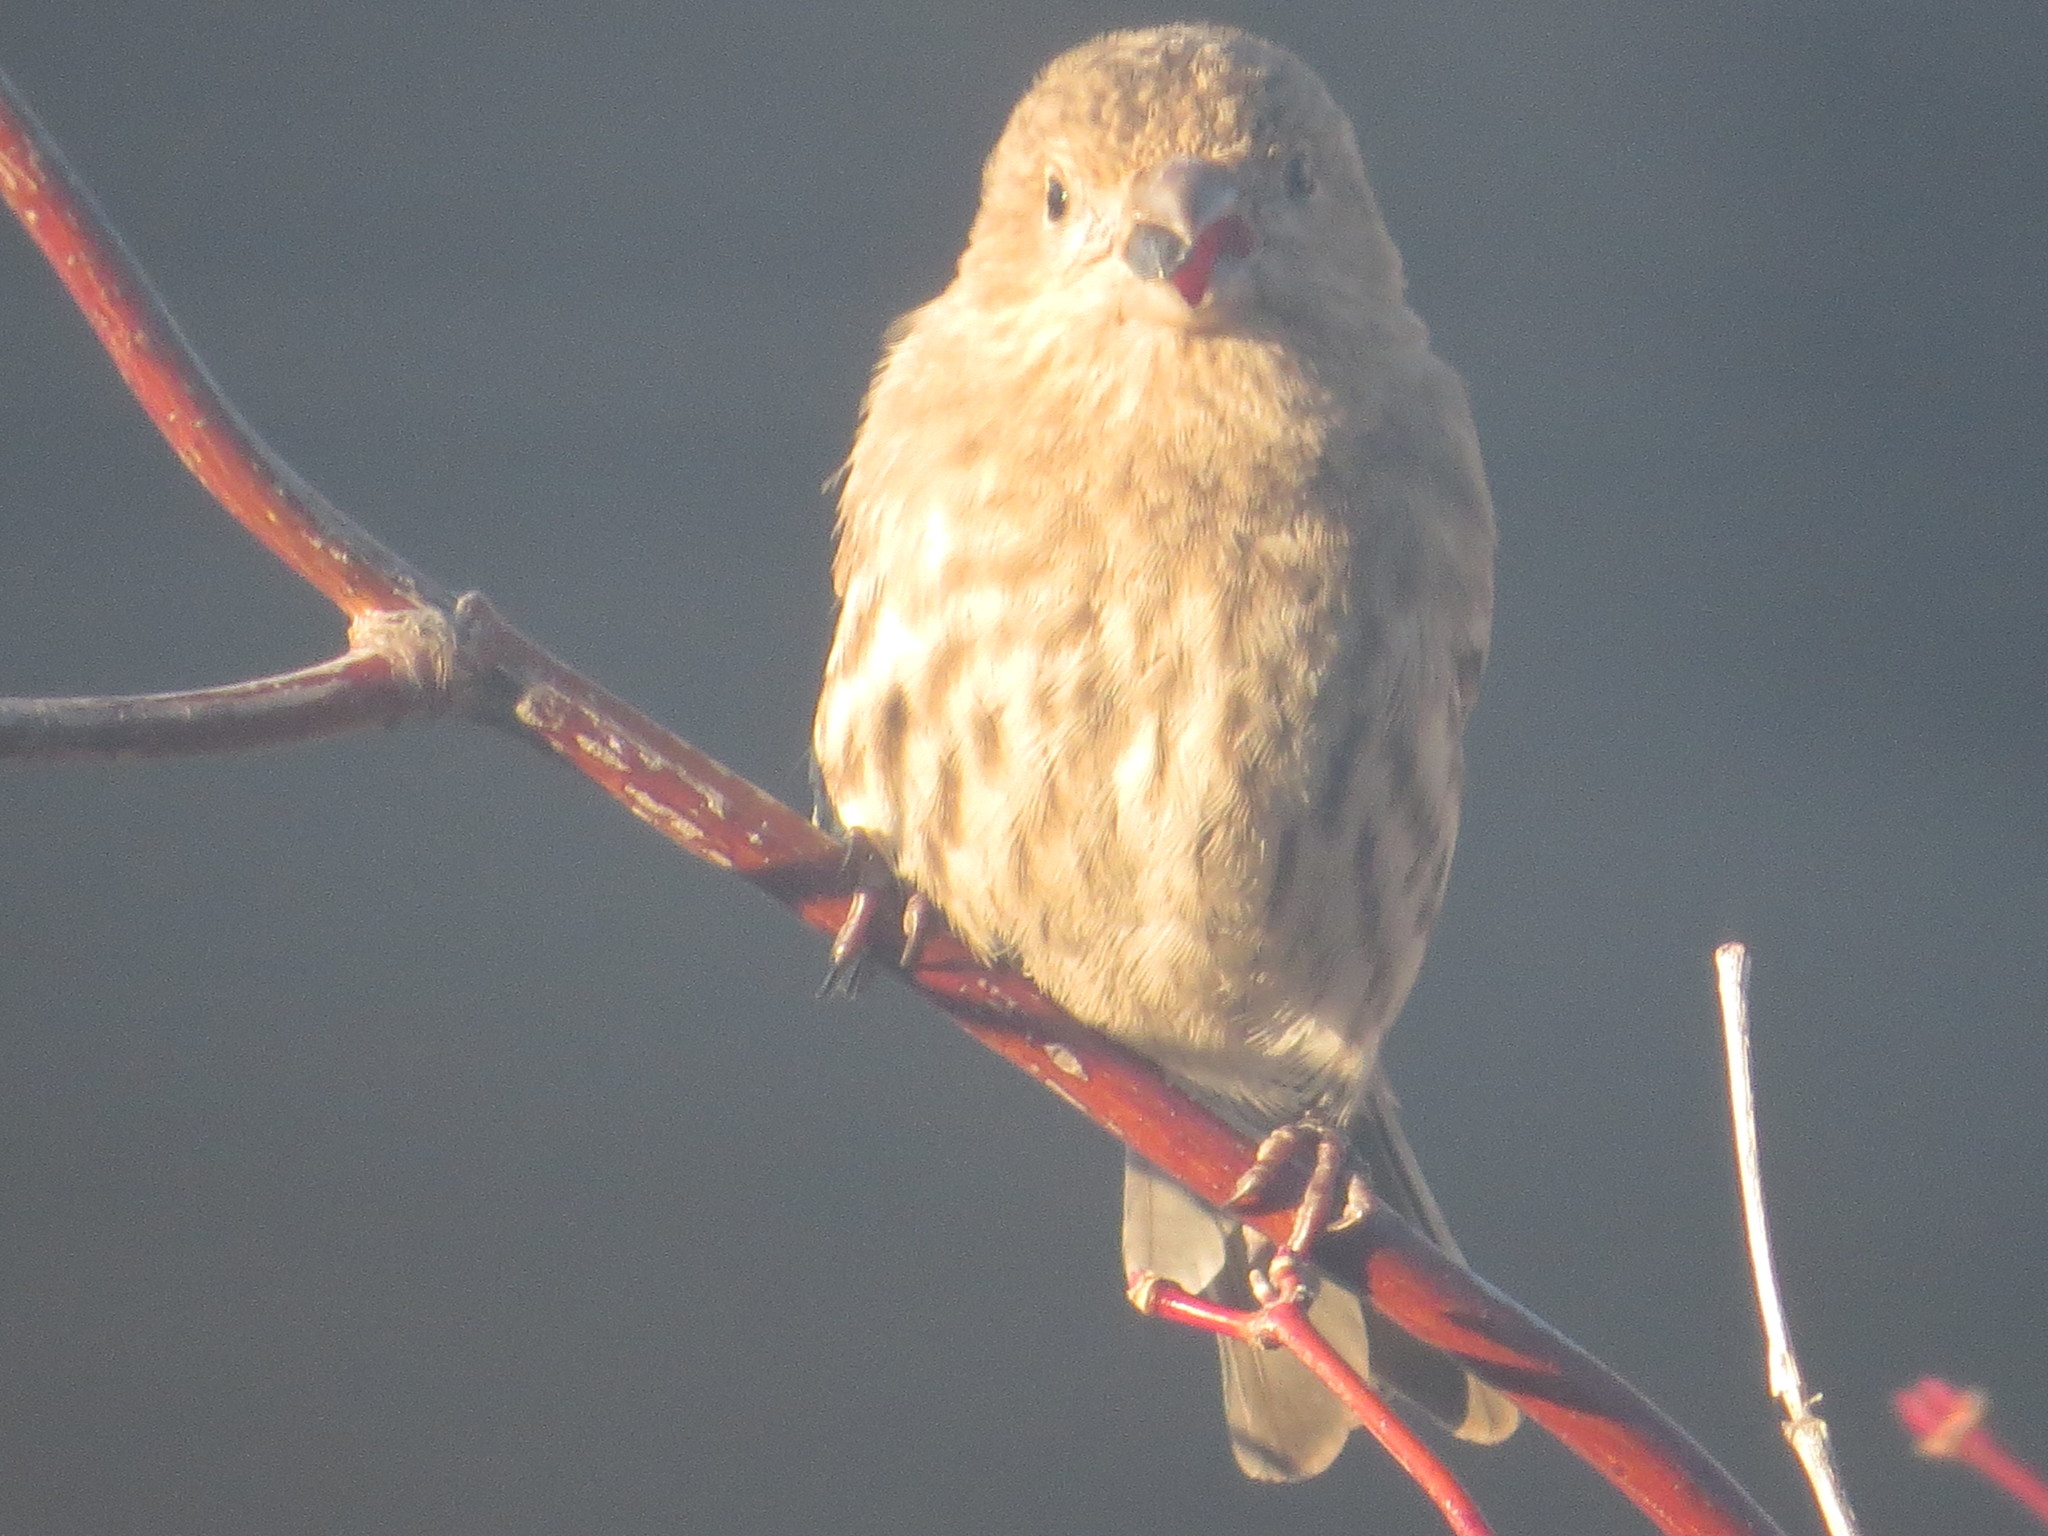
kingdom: Animalia
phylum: Chordata
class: Aves
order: Passeriformes
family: Fringillidae
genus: Haemorhous
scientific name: Haemorhous mexicanus
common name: House finch
